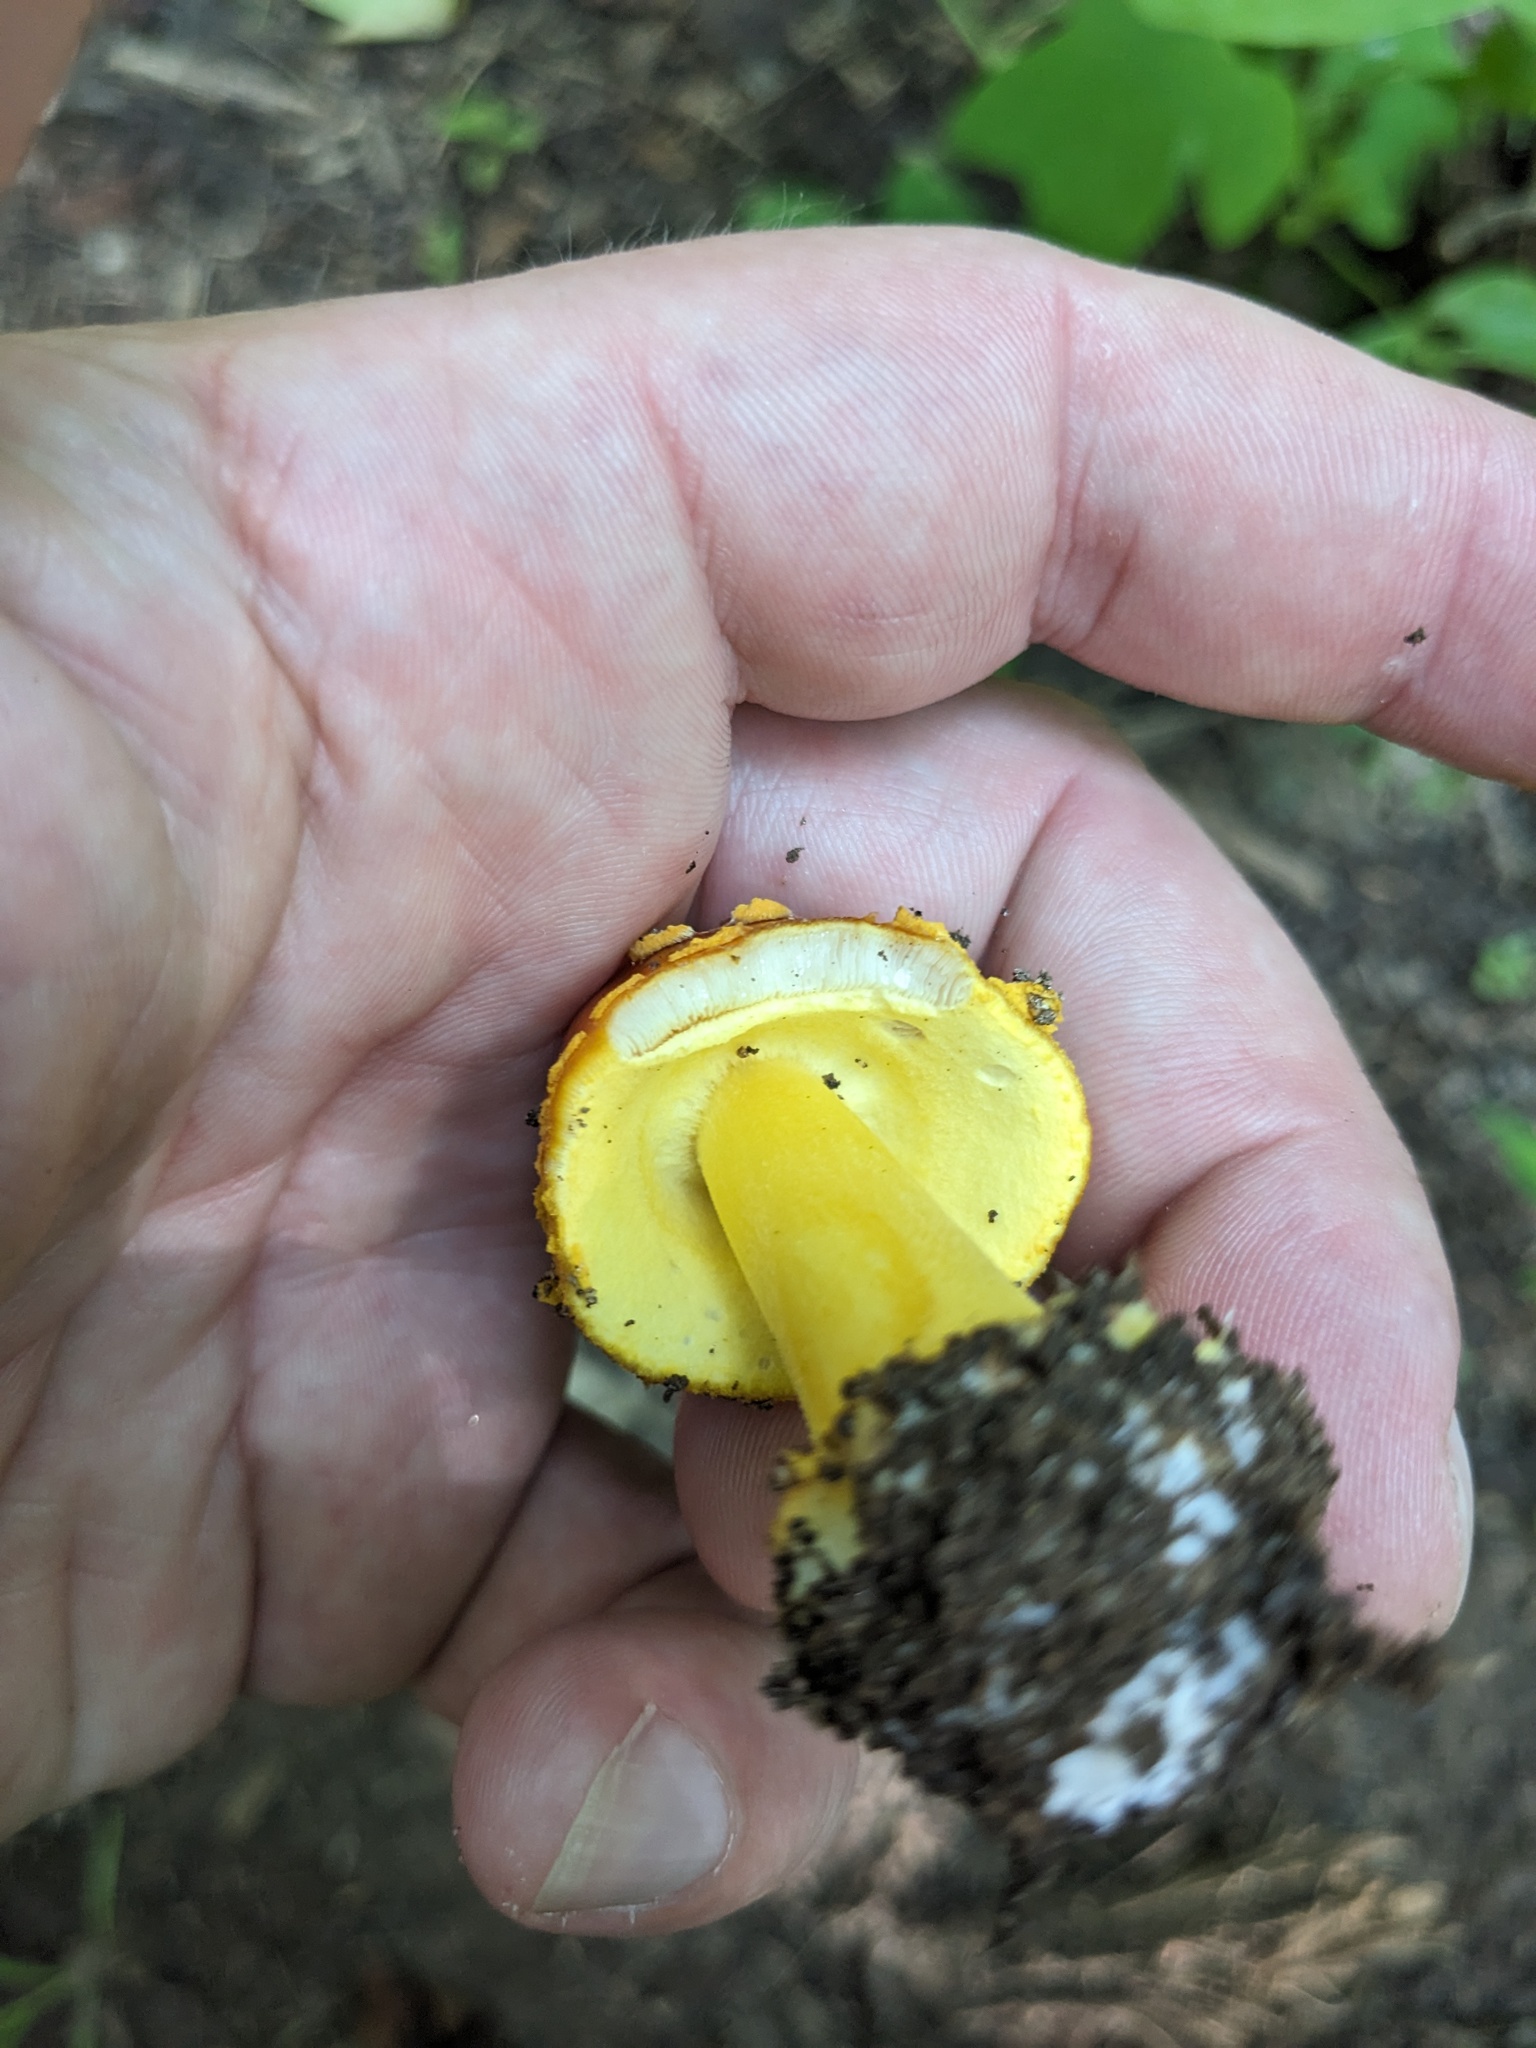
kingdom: Fungi
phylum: Basidiomycota
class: Agaricomycetes
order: Agaricales
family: Amanitaceae
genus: Amanita
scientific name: Amanita flavoconia
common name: Yellow patches
